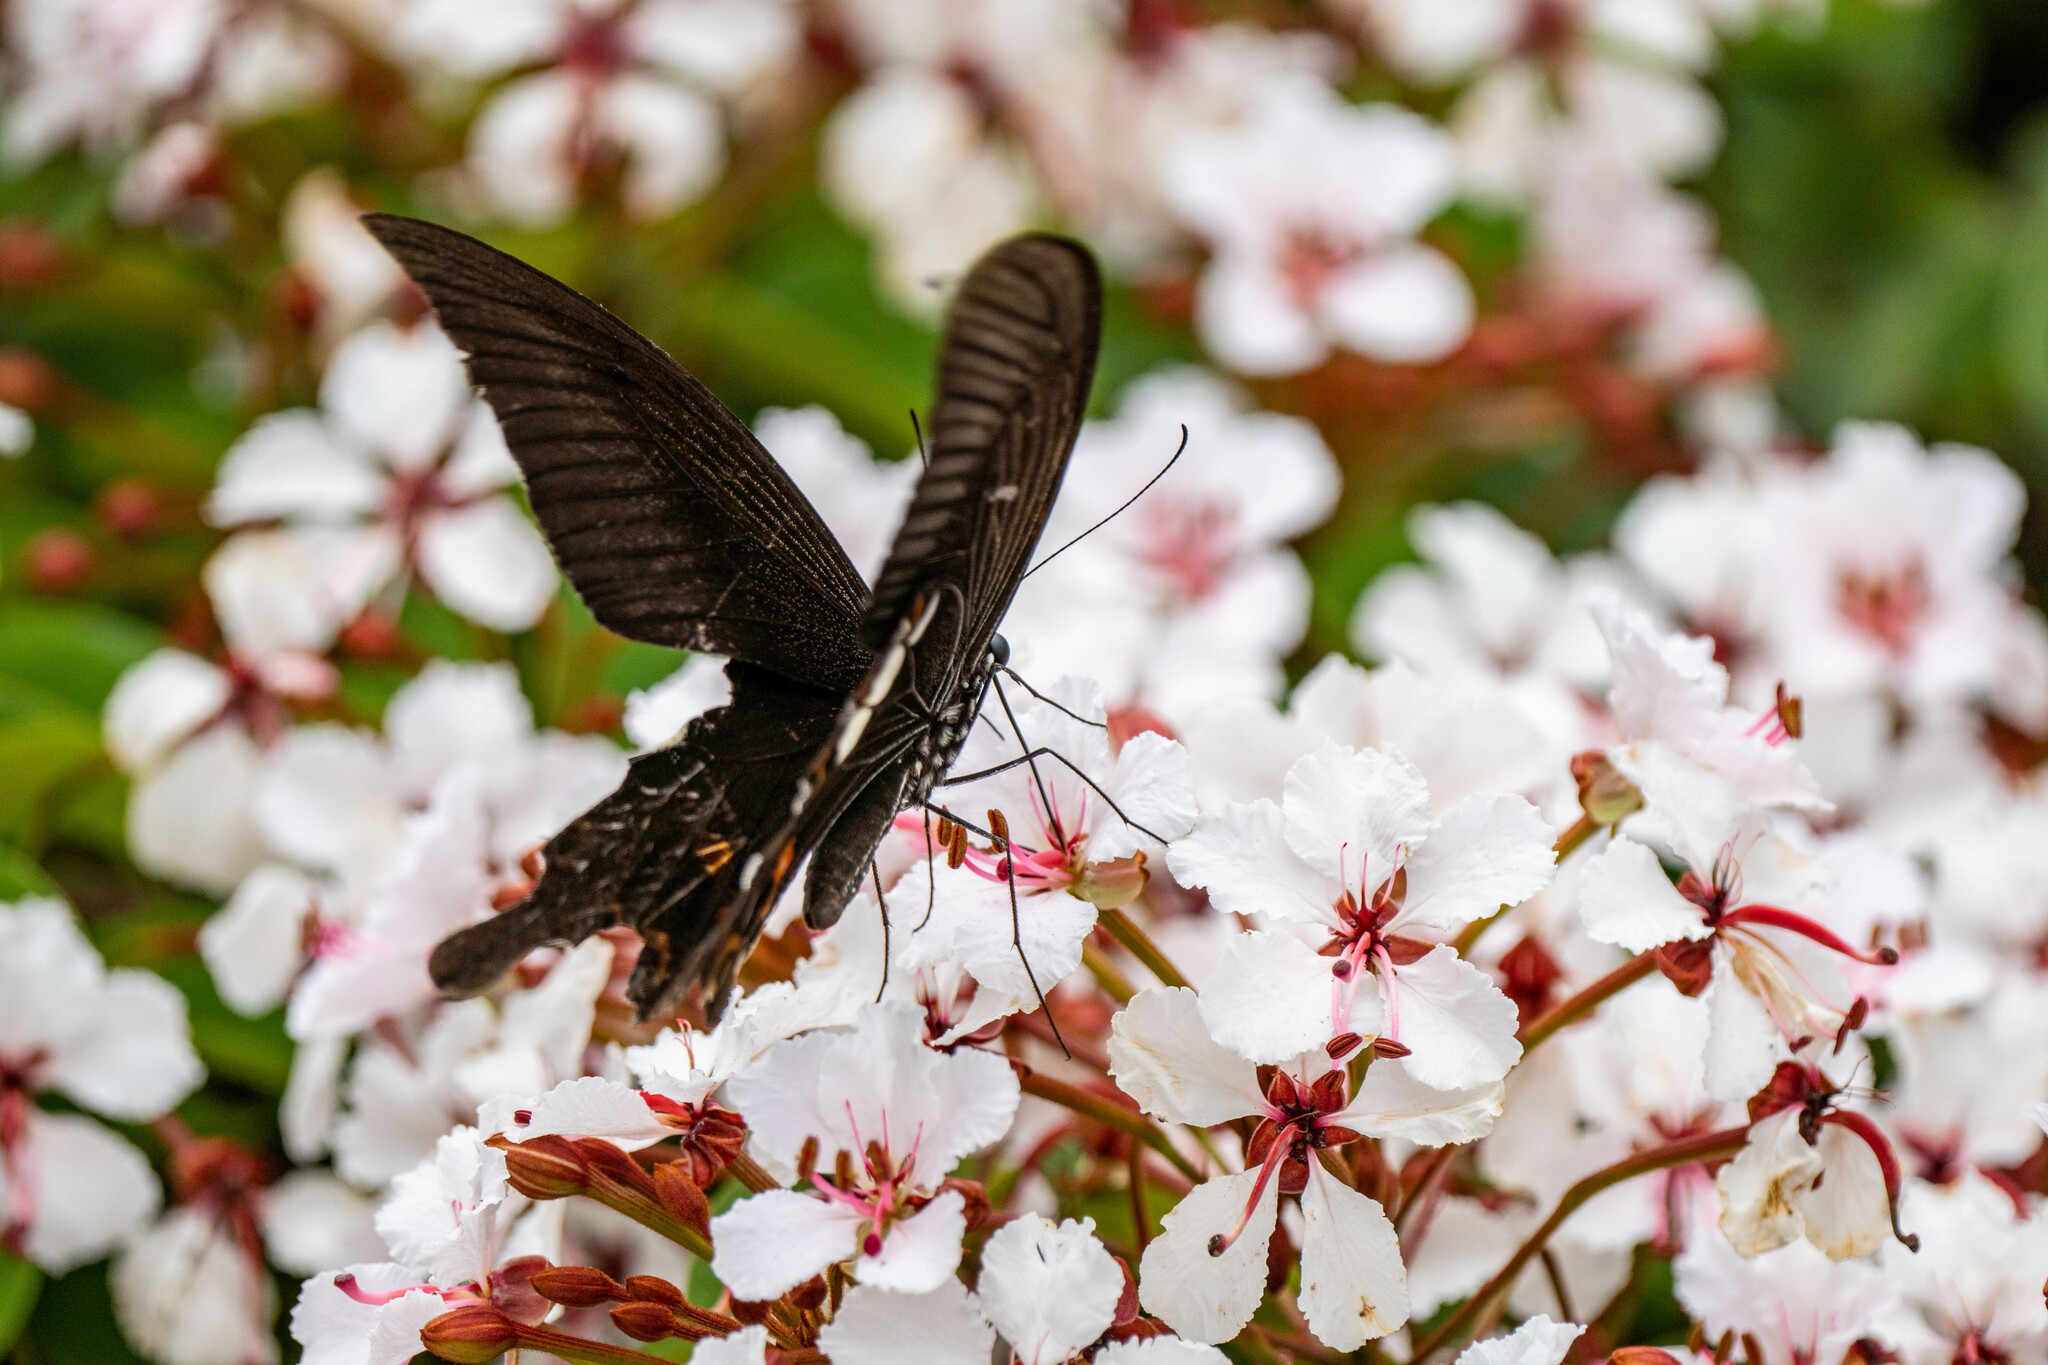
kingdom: Animalia
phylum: Arthropoda
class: Insecta
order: Lepidoptera
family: Papilionidae
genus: Papilio
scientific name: Papilio helenus
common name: Red helen
